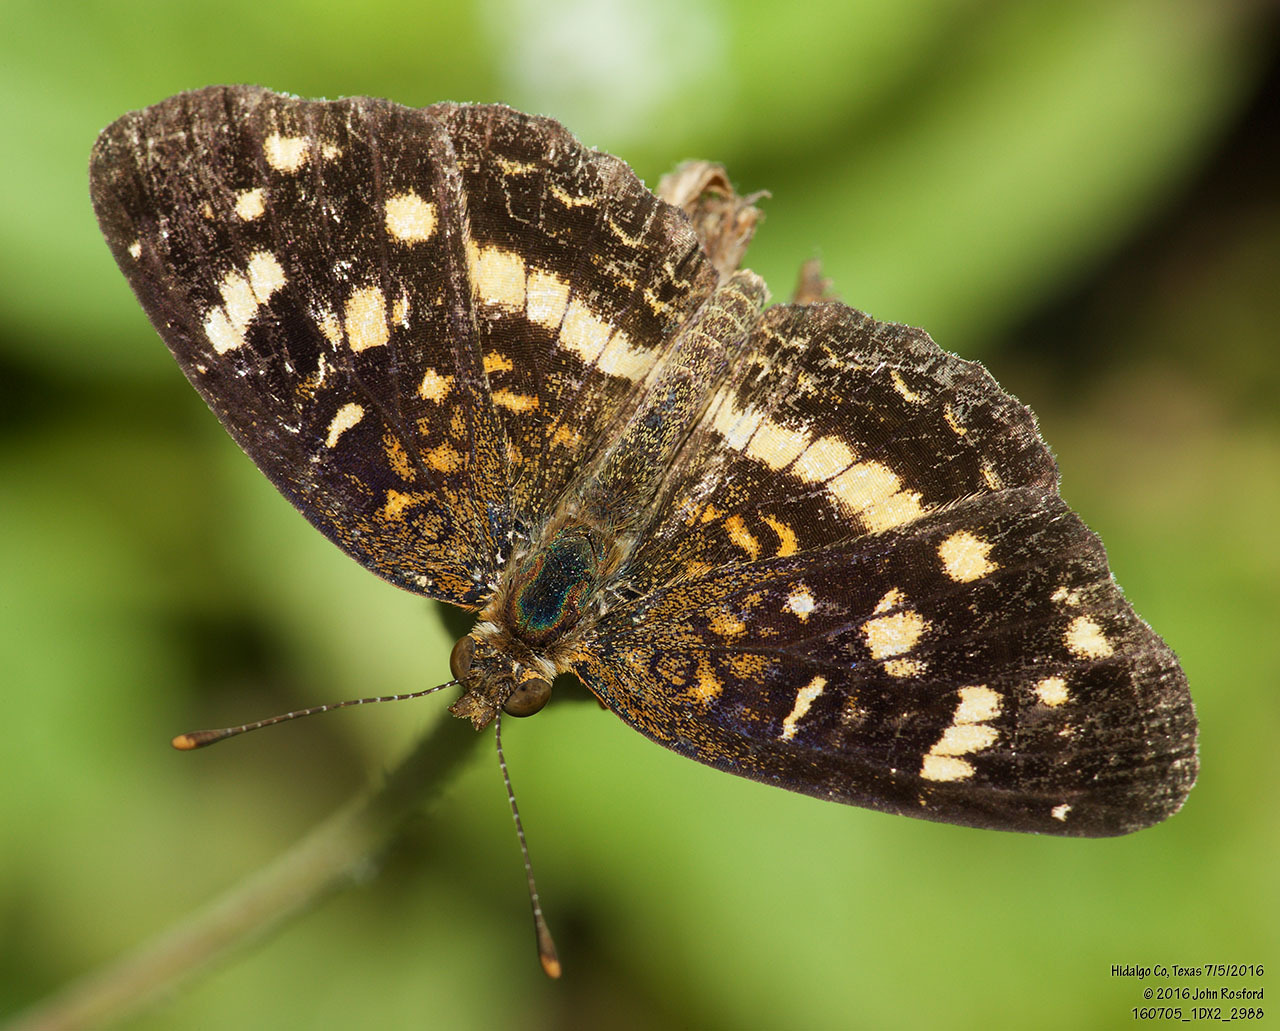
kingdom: Animalia
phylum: Arthropoda
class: Insecta
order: Lepidoptera
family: Nymphalidae
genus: Anthanassa
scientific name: Anthanassa tulcis
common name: Pale-banded crescent
